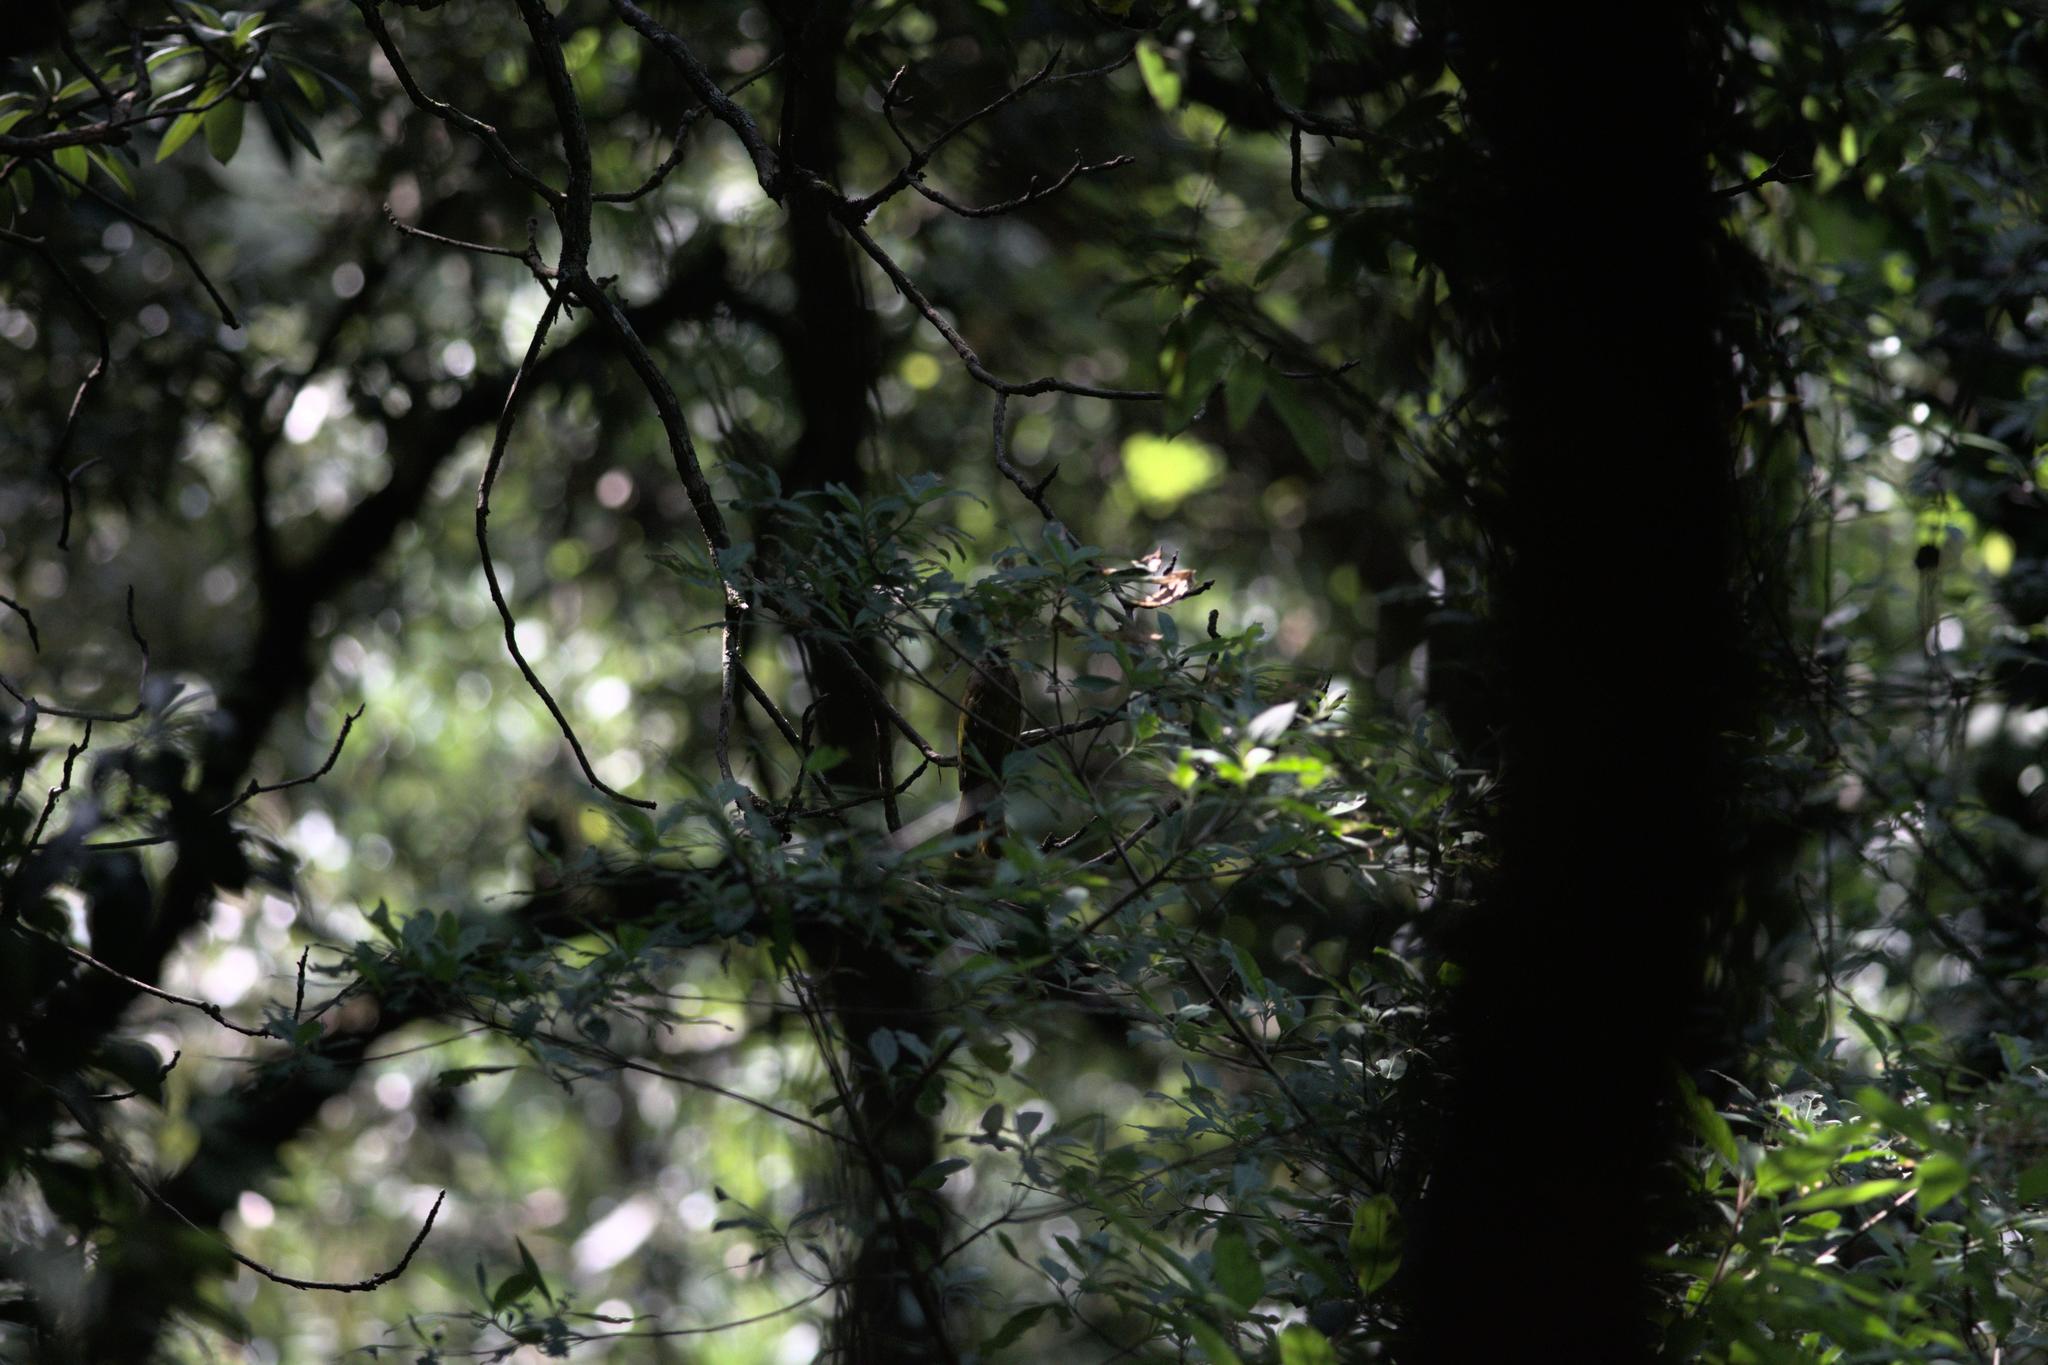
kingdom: Animalia
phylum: Chordata
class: Aves
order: Passeriformes
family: Pycnonotidae
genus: Ixos
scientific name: Ixos mcclellandii
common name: Mountain bulbul
